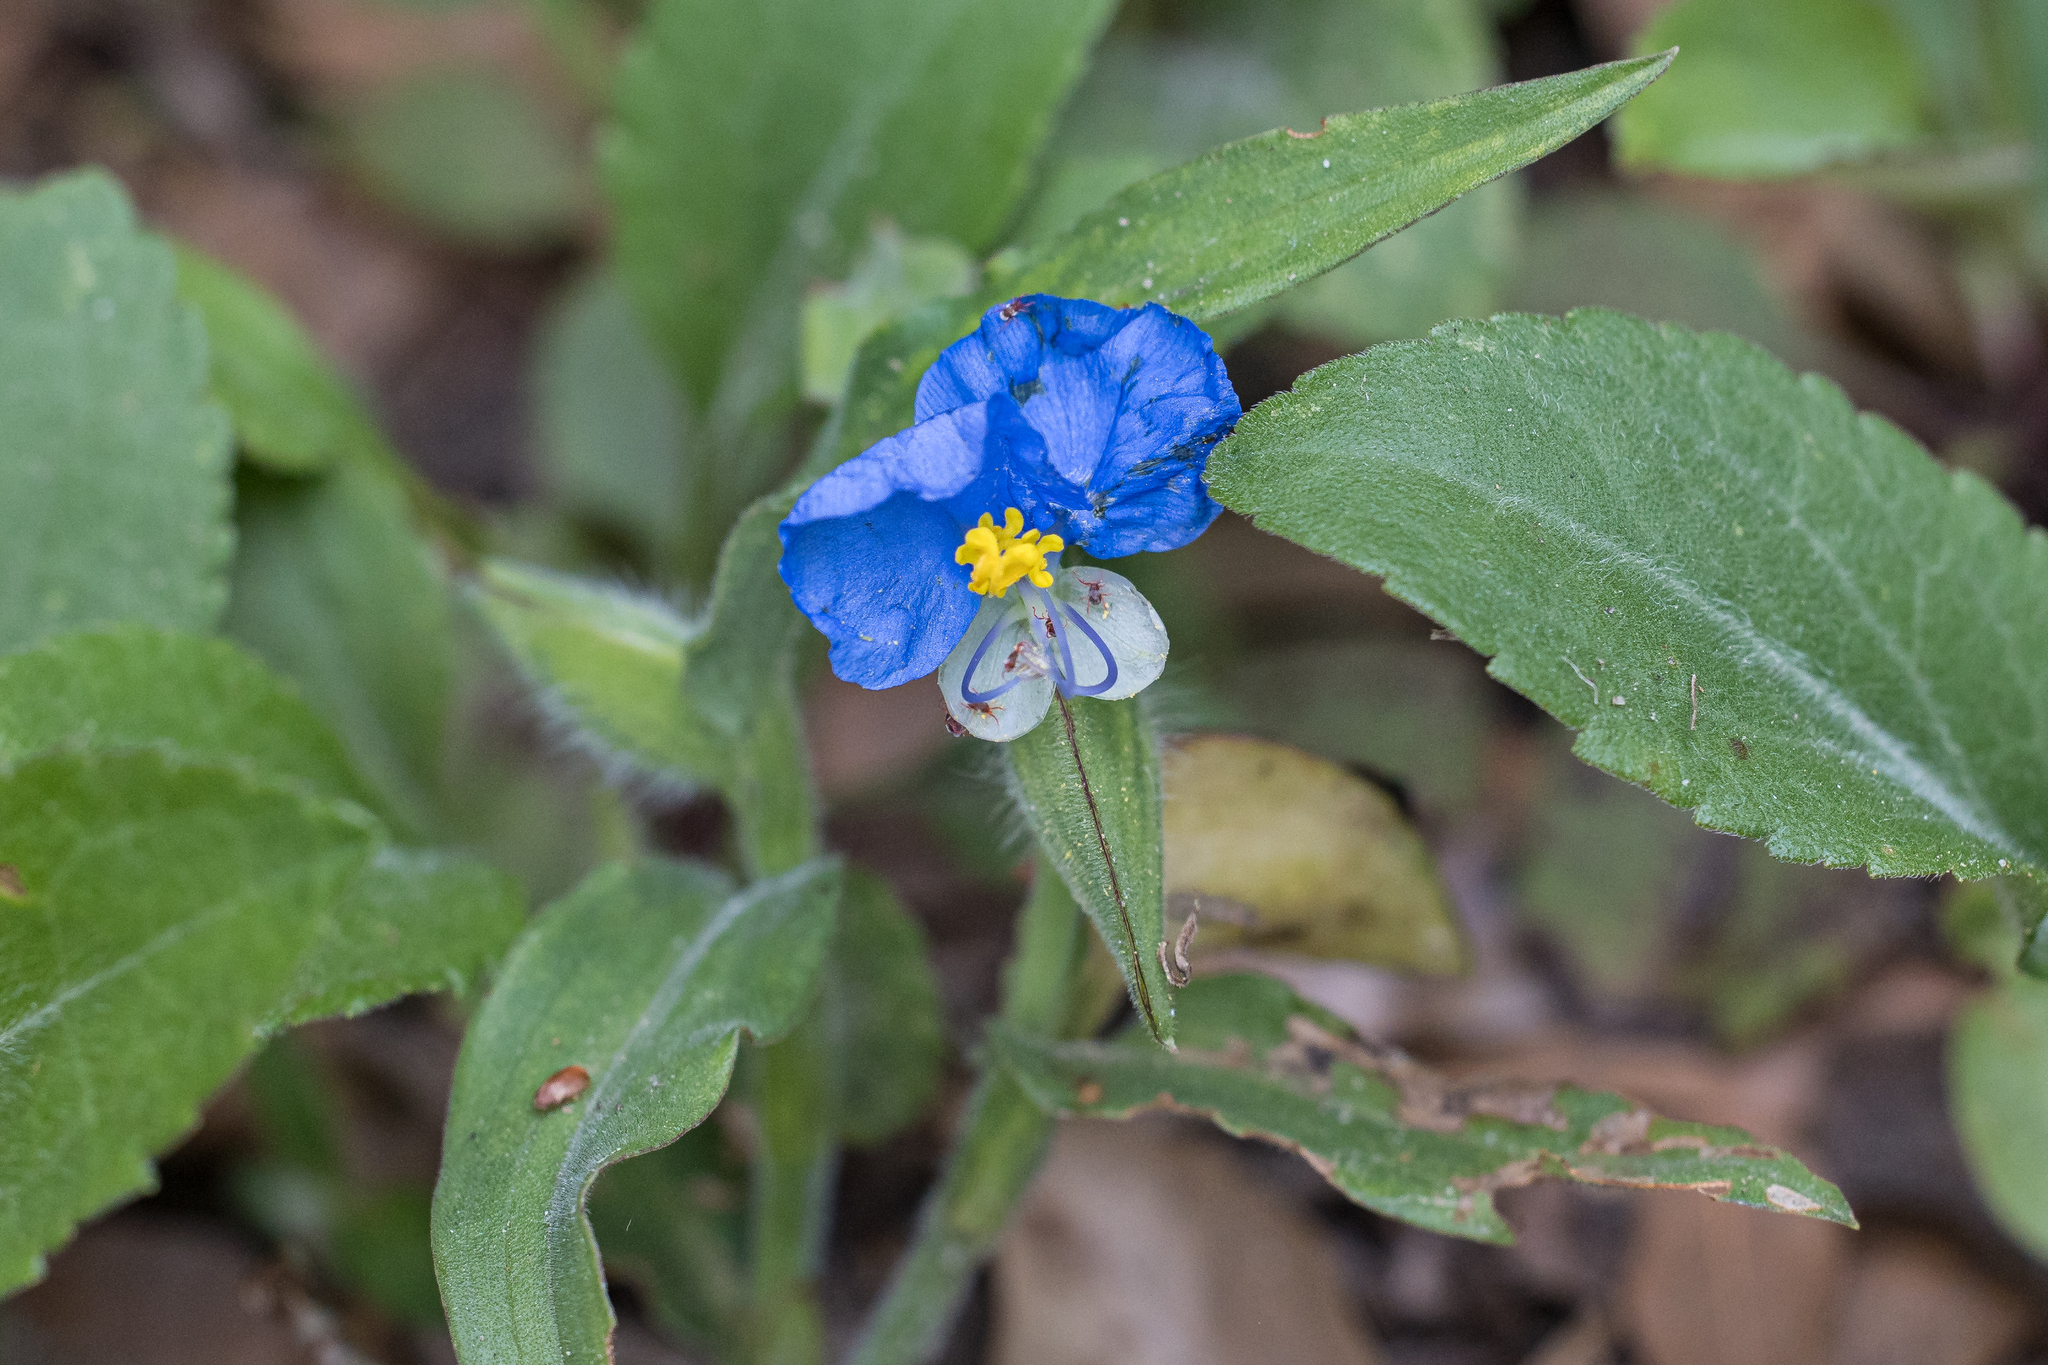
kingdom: Plantae
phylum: Tracheophyta
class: Liliopsida
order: Commelinales
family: Commelinaceae
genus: Commelina
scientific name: Commelina erecta
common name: Blousel blommetjie
